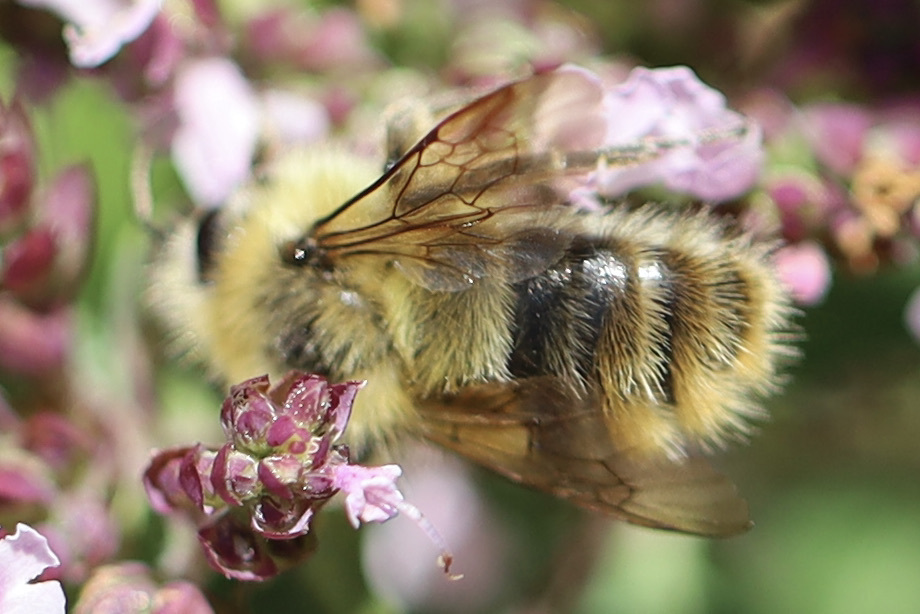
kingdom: Animalia
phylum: Arthropoda
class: Insecta
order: Hymenoptera
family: Apidae
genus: Bombus
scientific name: Bombus mixtus
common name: Fuzzy-horned bumble bee
